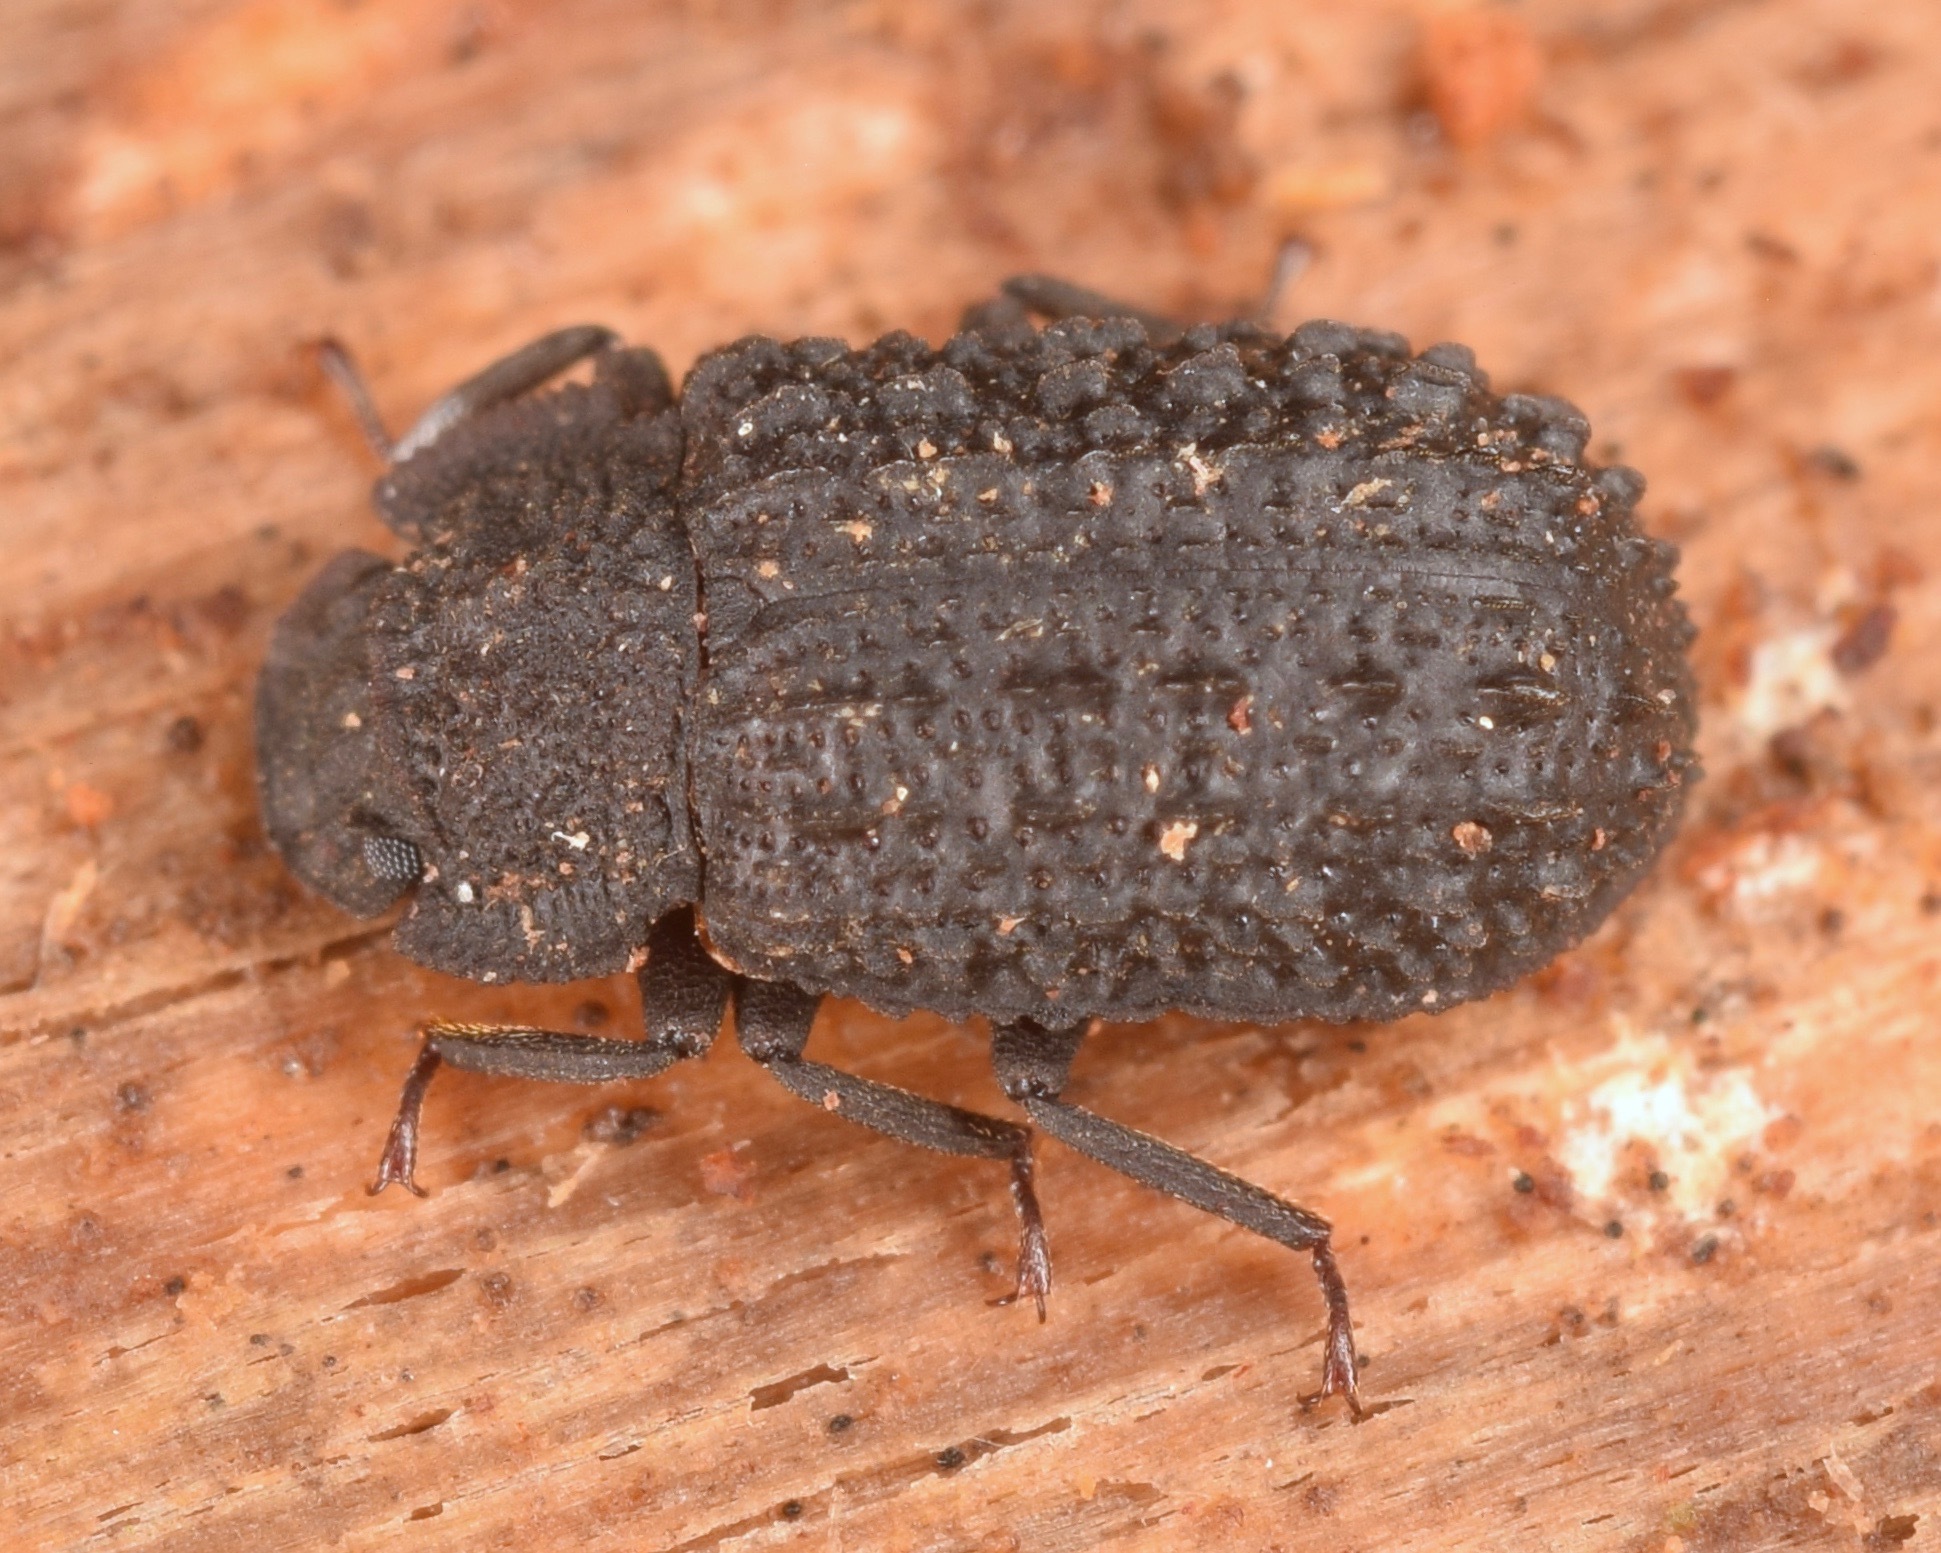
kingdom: Animalia
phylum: Arthropoda
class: Insecta
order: Coleoptera
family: Tenebrionidae
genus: Bolitophagus
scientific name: Bolitophagus corticola
